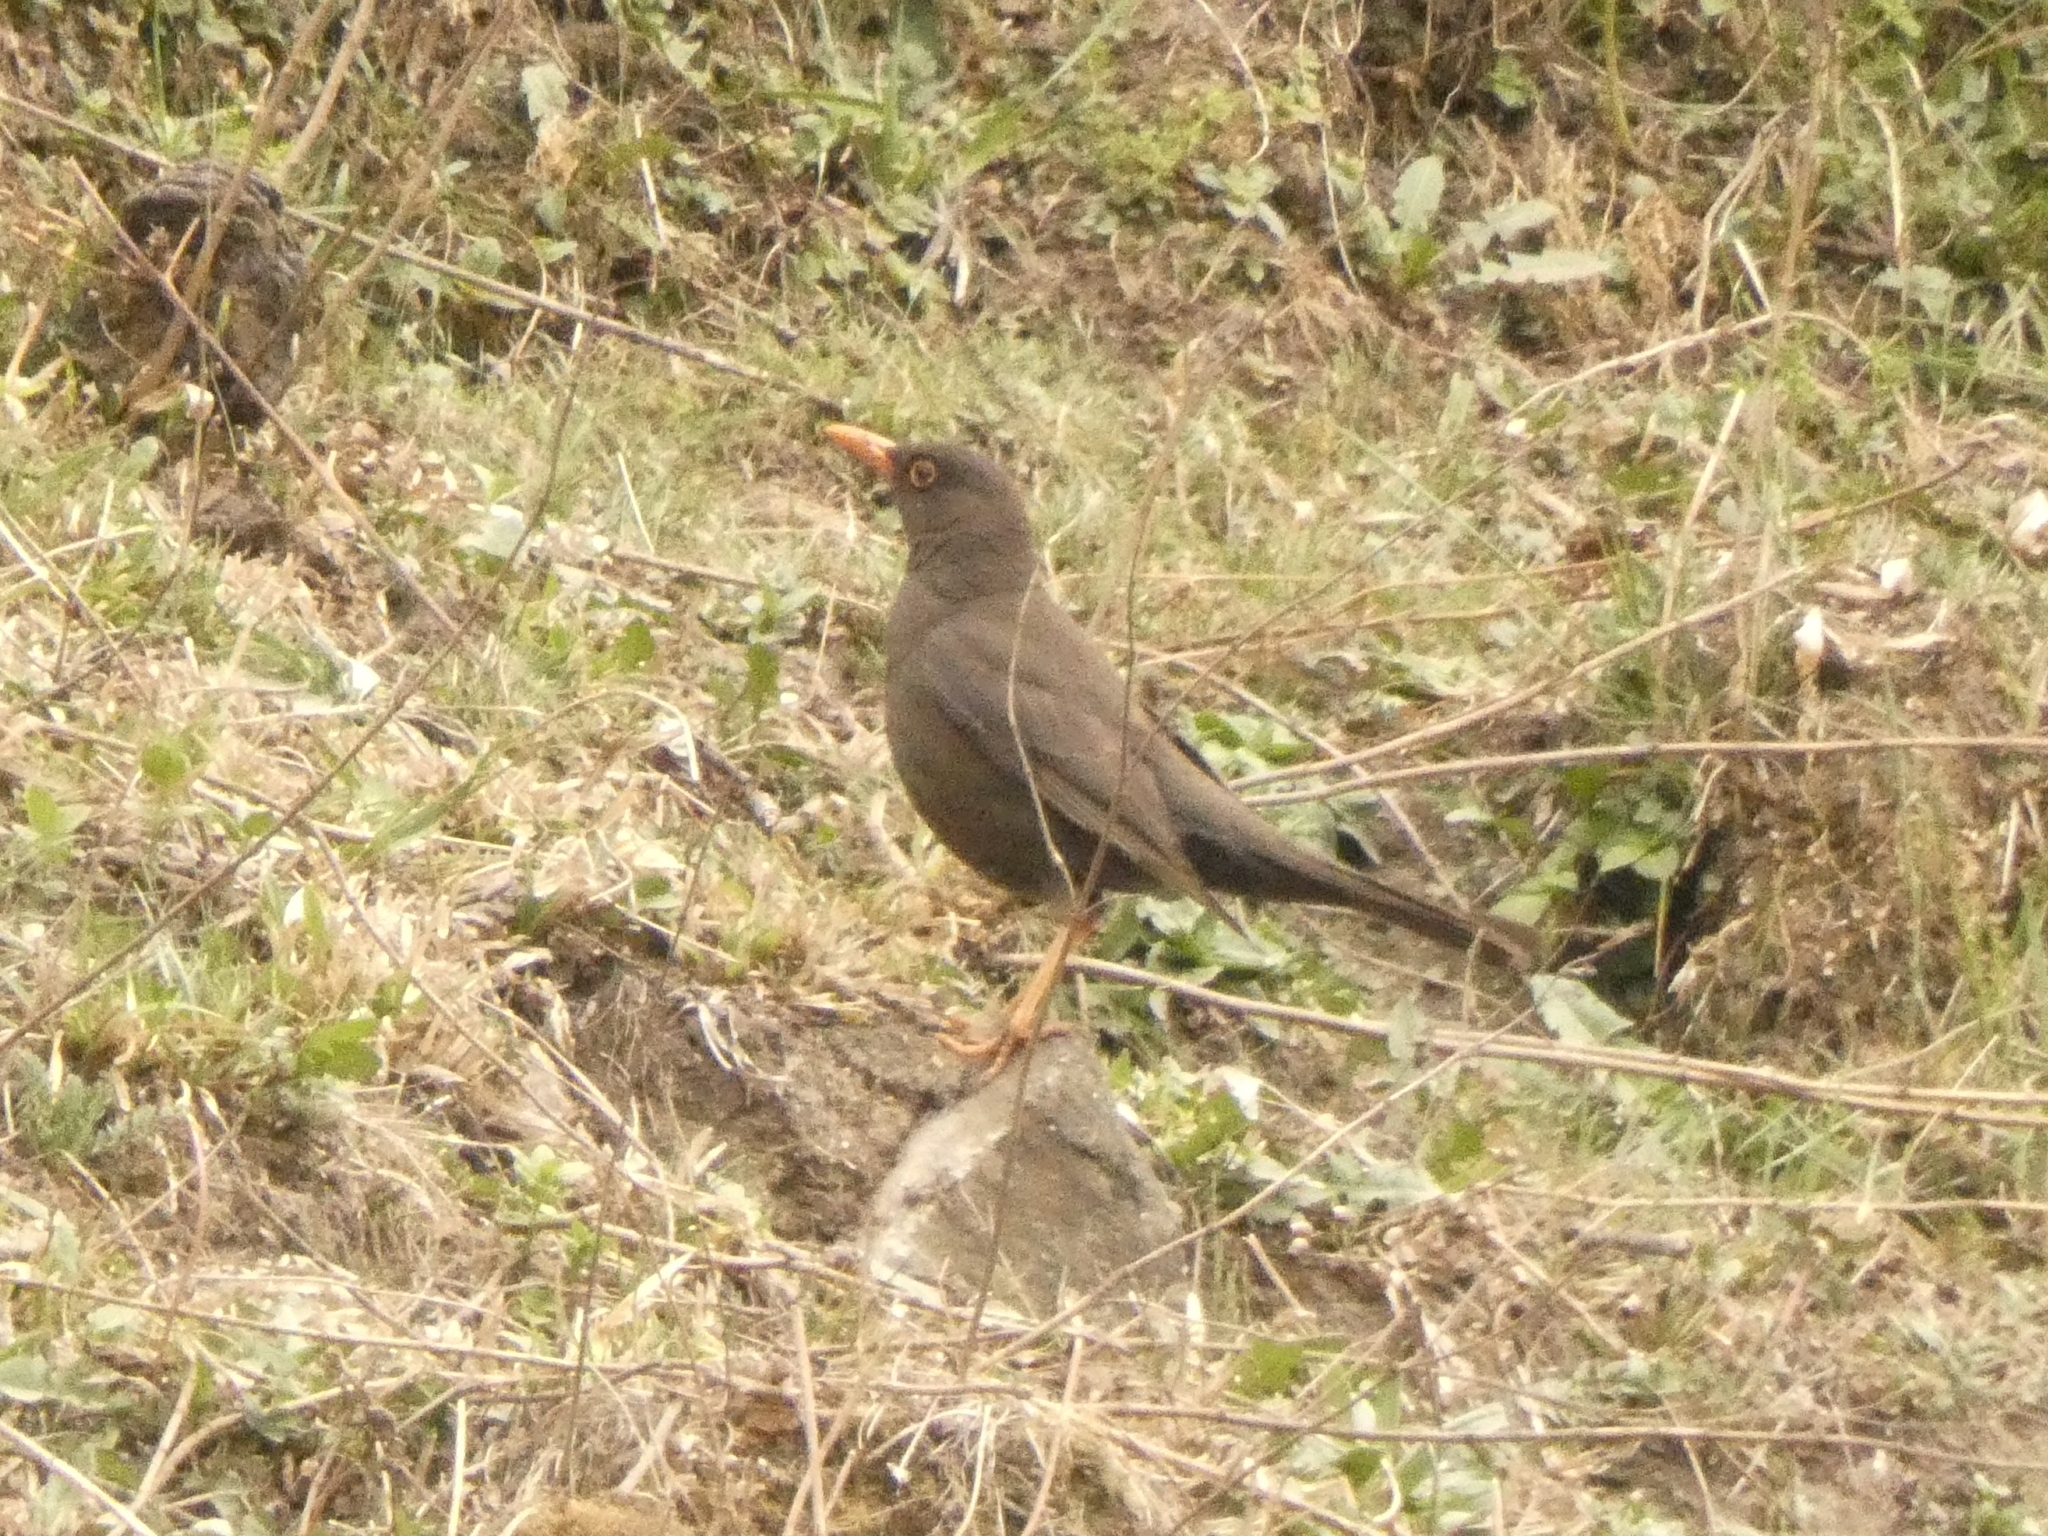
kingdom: Animalia
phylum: Chordata
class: Aves
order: Passeriformes
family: Turdidae
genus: Turdus
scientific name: Turdus chiguanco
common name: Chiguanco thrush
